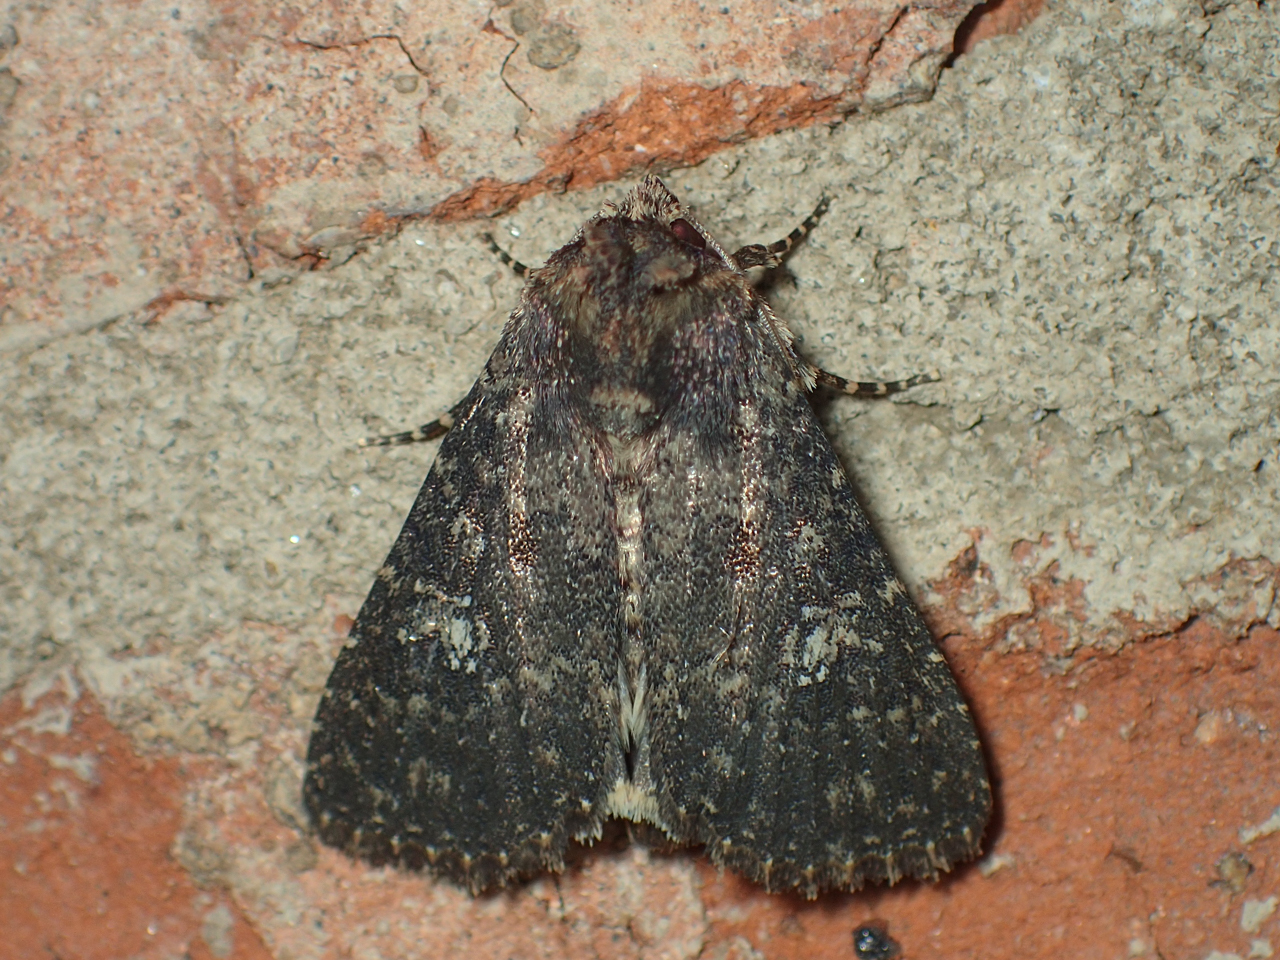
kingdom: Animalia
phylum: Arthropoda
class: Insecta
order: Lepidoptera
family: Noctuidae
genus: Condica
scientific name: Condica vecors
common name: Dusky groundling
